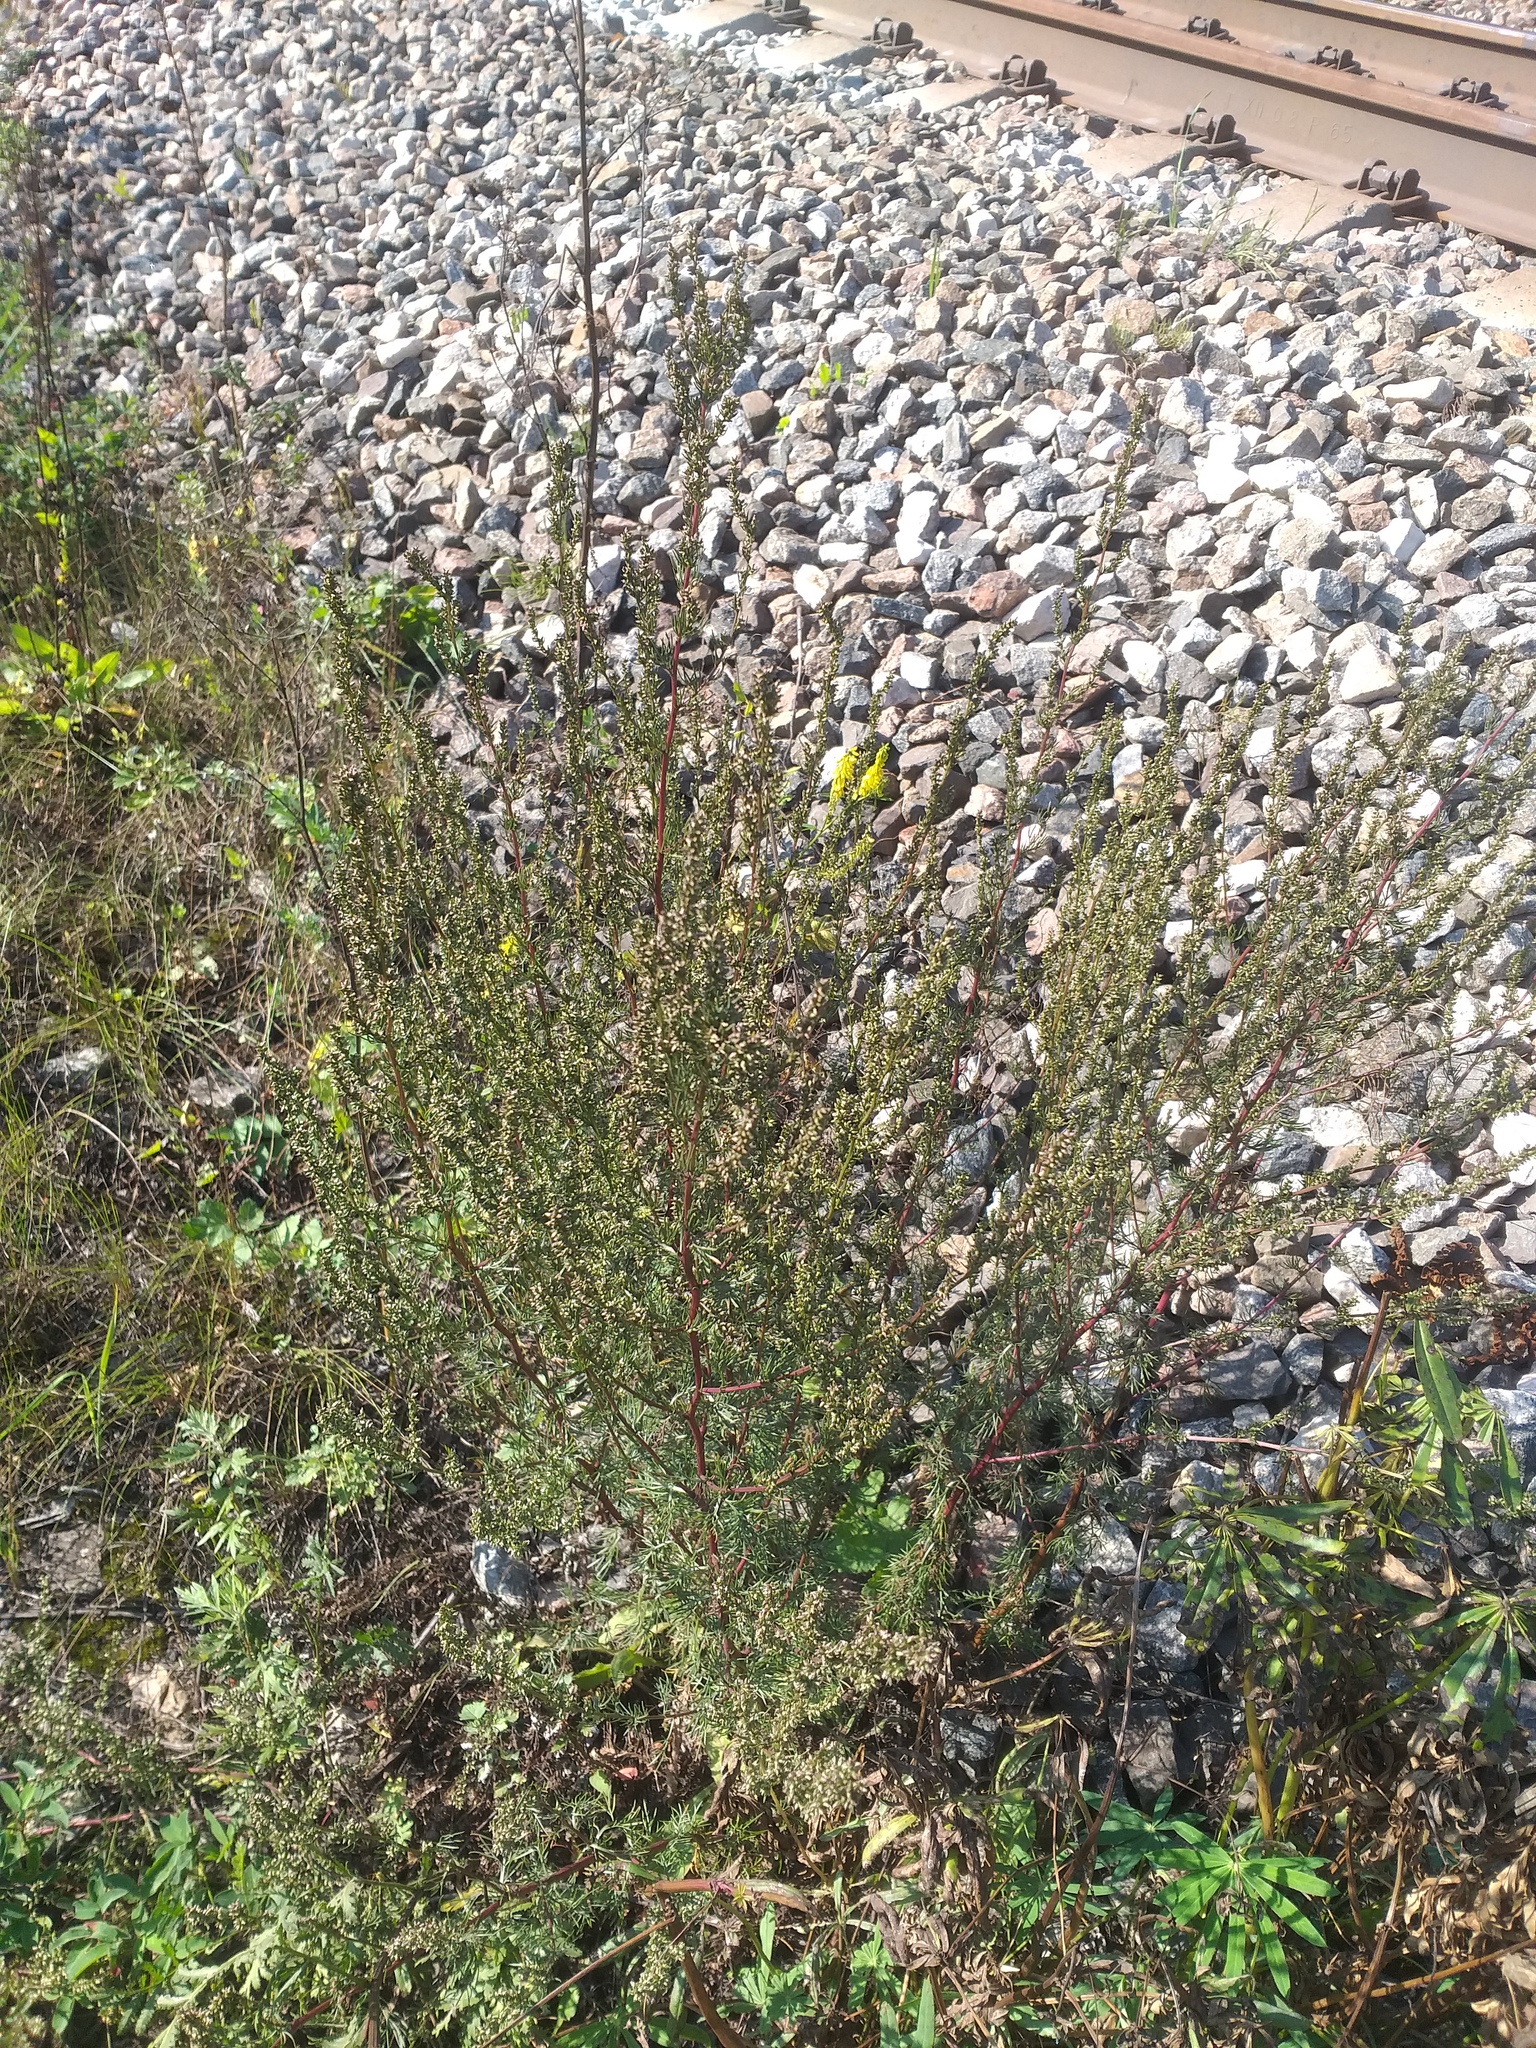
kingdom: Plantae
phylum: Tracheophyta
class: Magnoliopsida
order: Asterales
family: Asteraceae
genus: Artemisia
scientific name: Artemisia campestris
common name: Field wormwood
